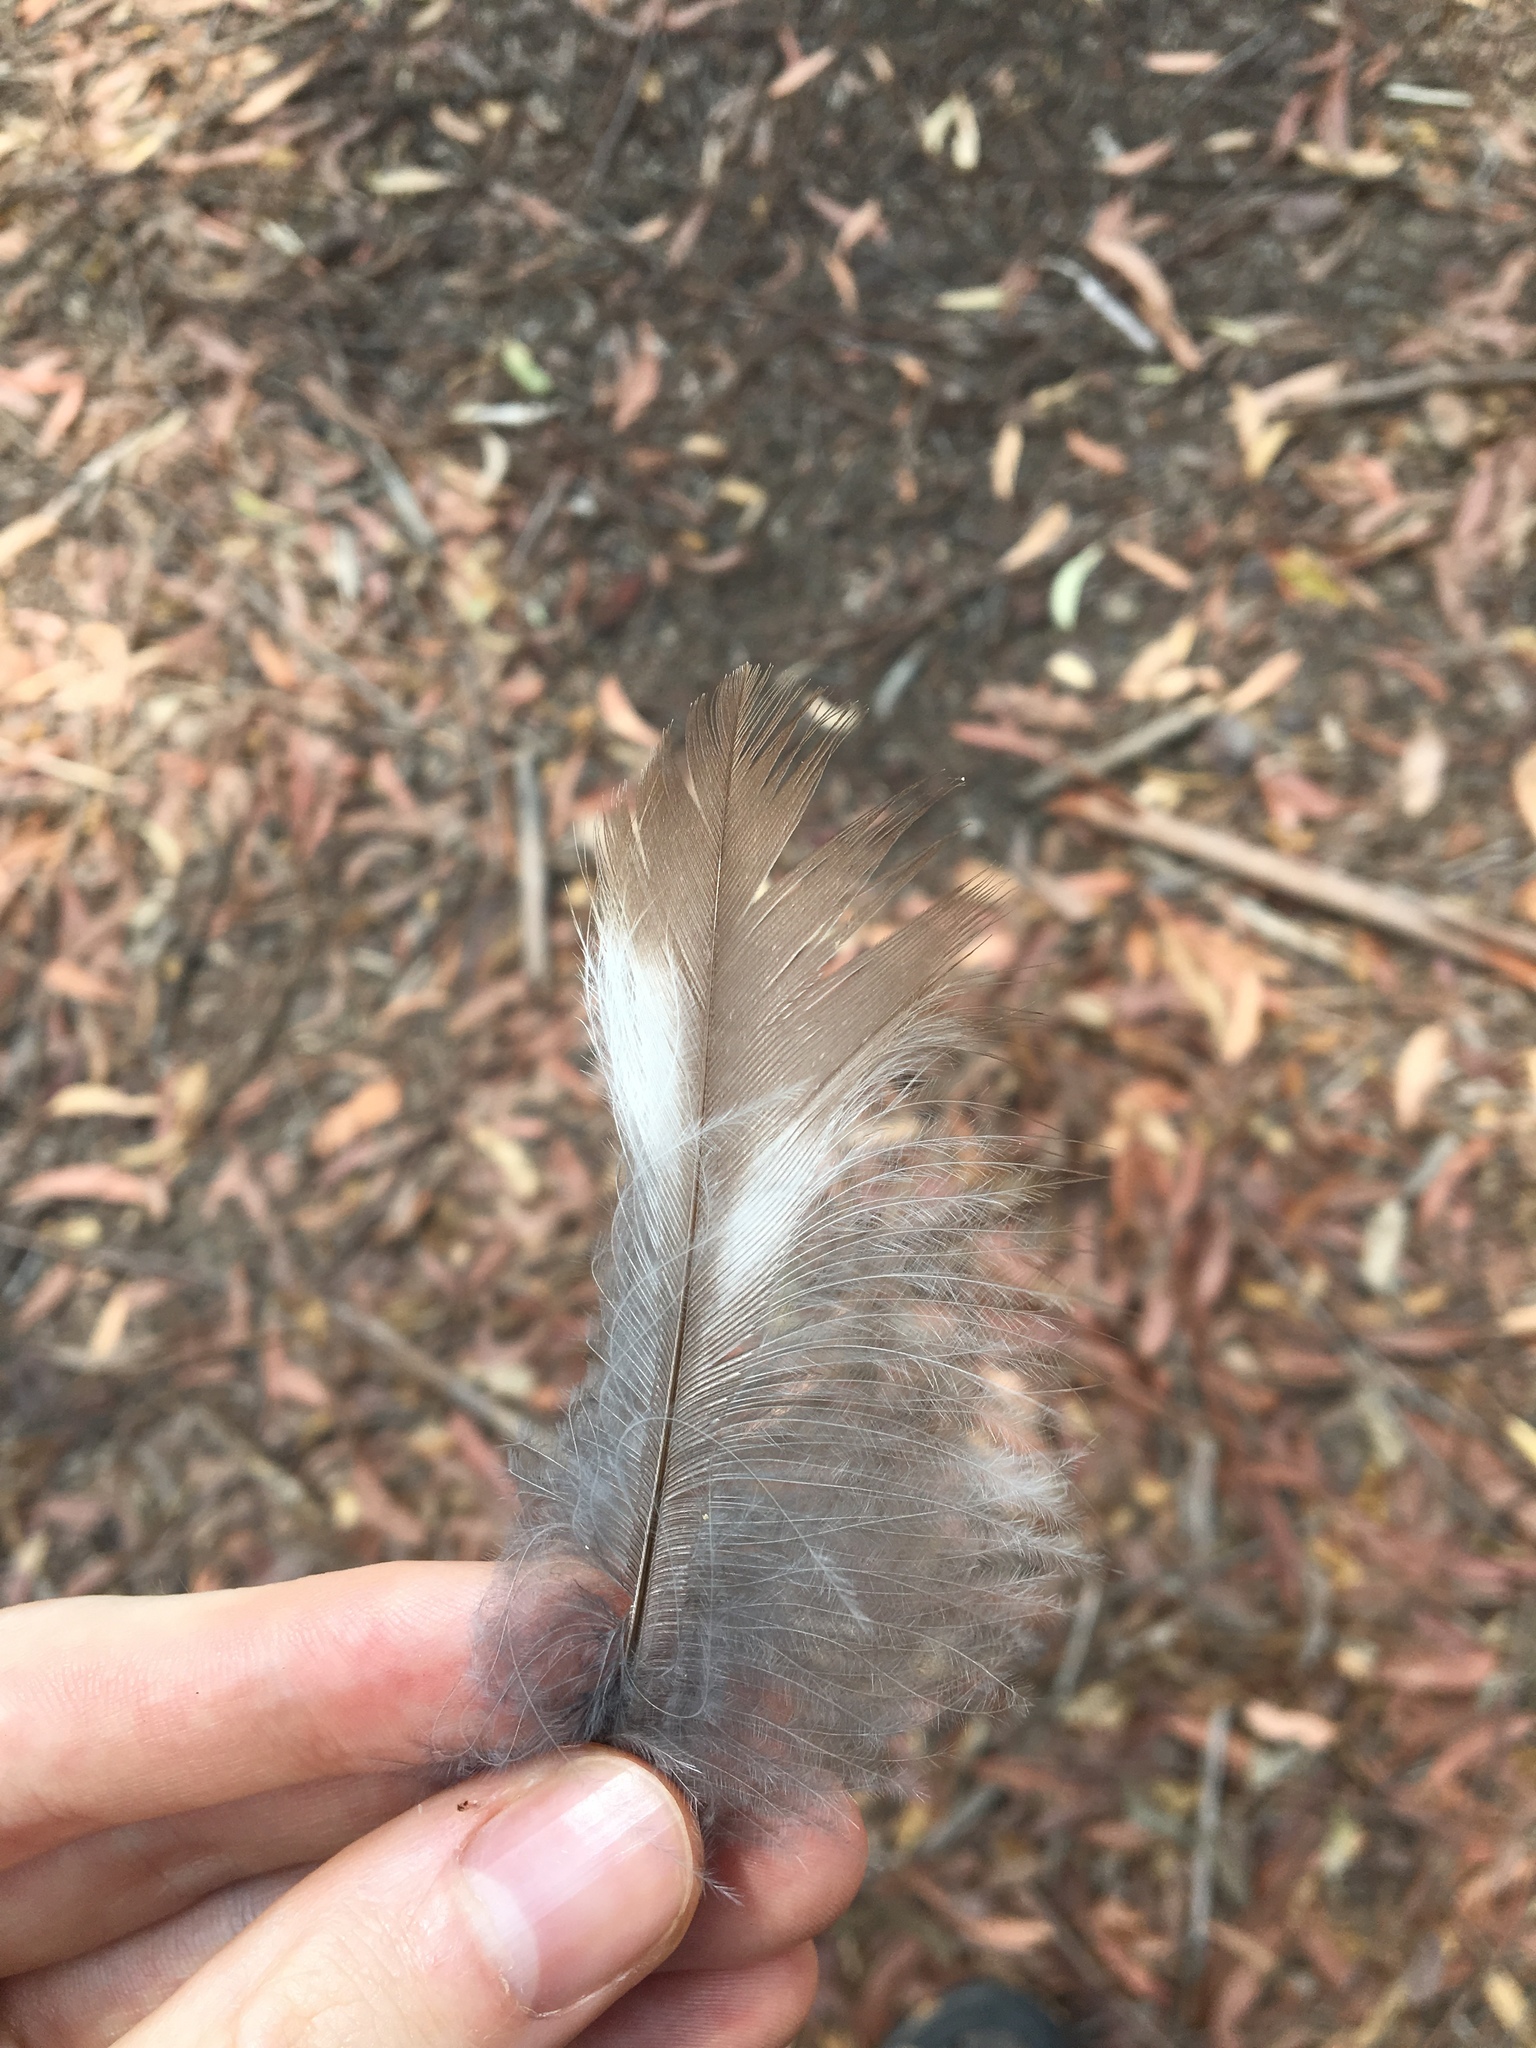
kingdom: Animalia
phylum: Chordata
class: Aves
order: Coraciiformes
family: Alcedinidae
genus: Dacelo
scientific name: Dacelo novaeguineae
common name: Laughing kookaburra
